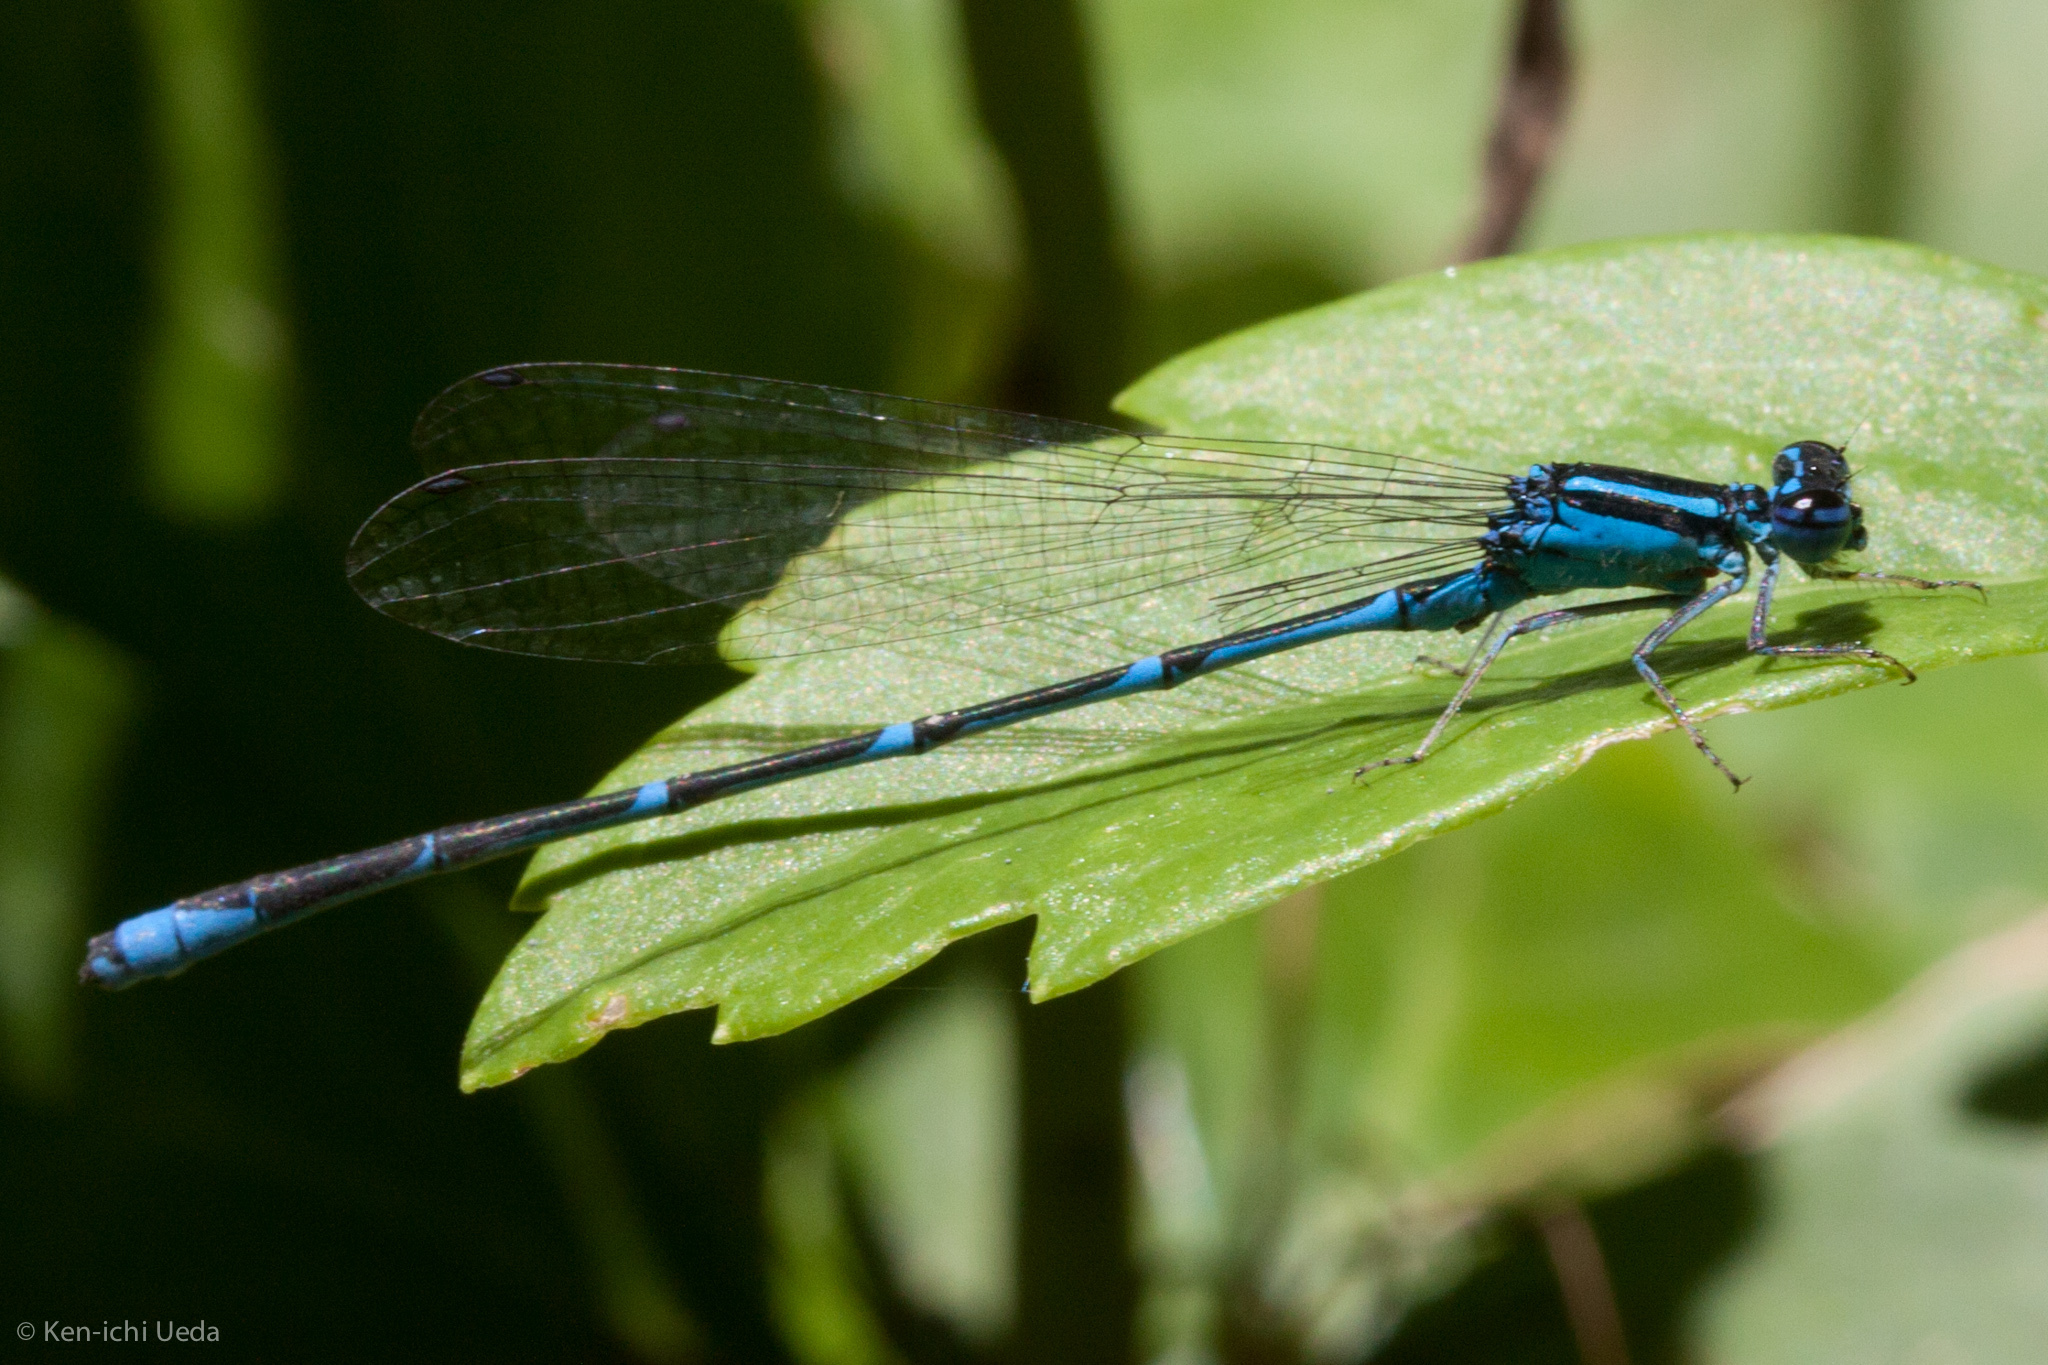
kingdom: Animalia
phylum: Arthropoda
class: Insecta
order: Odonata
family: Coenagrionidae
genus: Enallagma
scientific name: Enallagma exsulans
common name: Stream bluet
